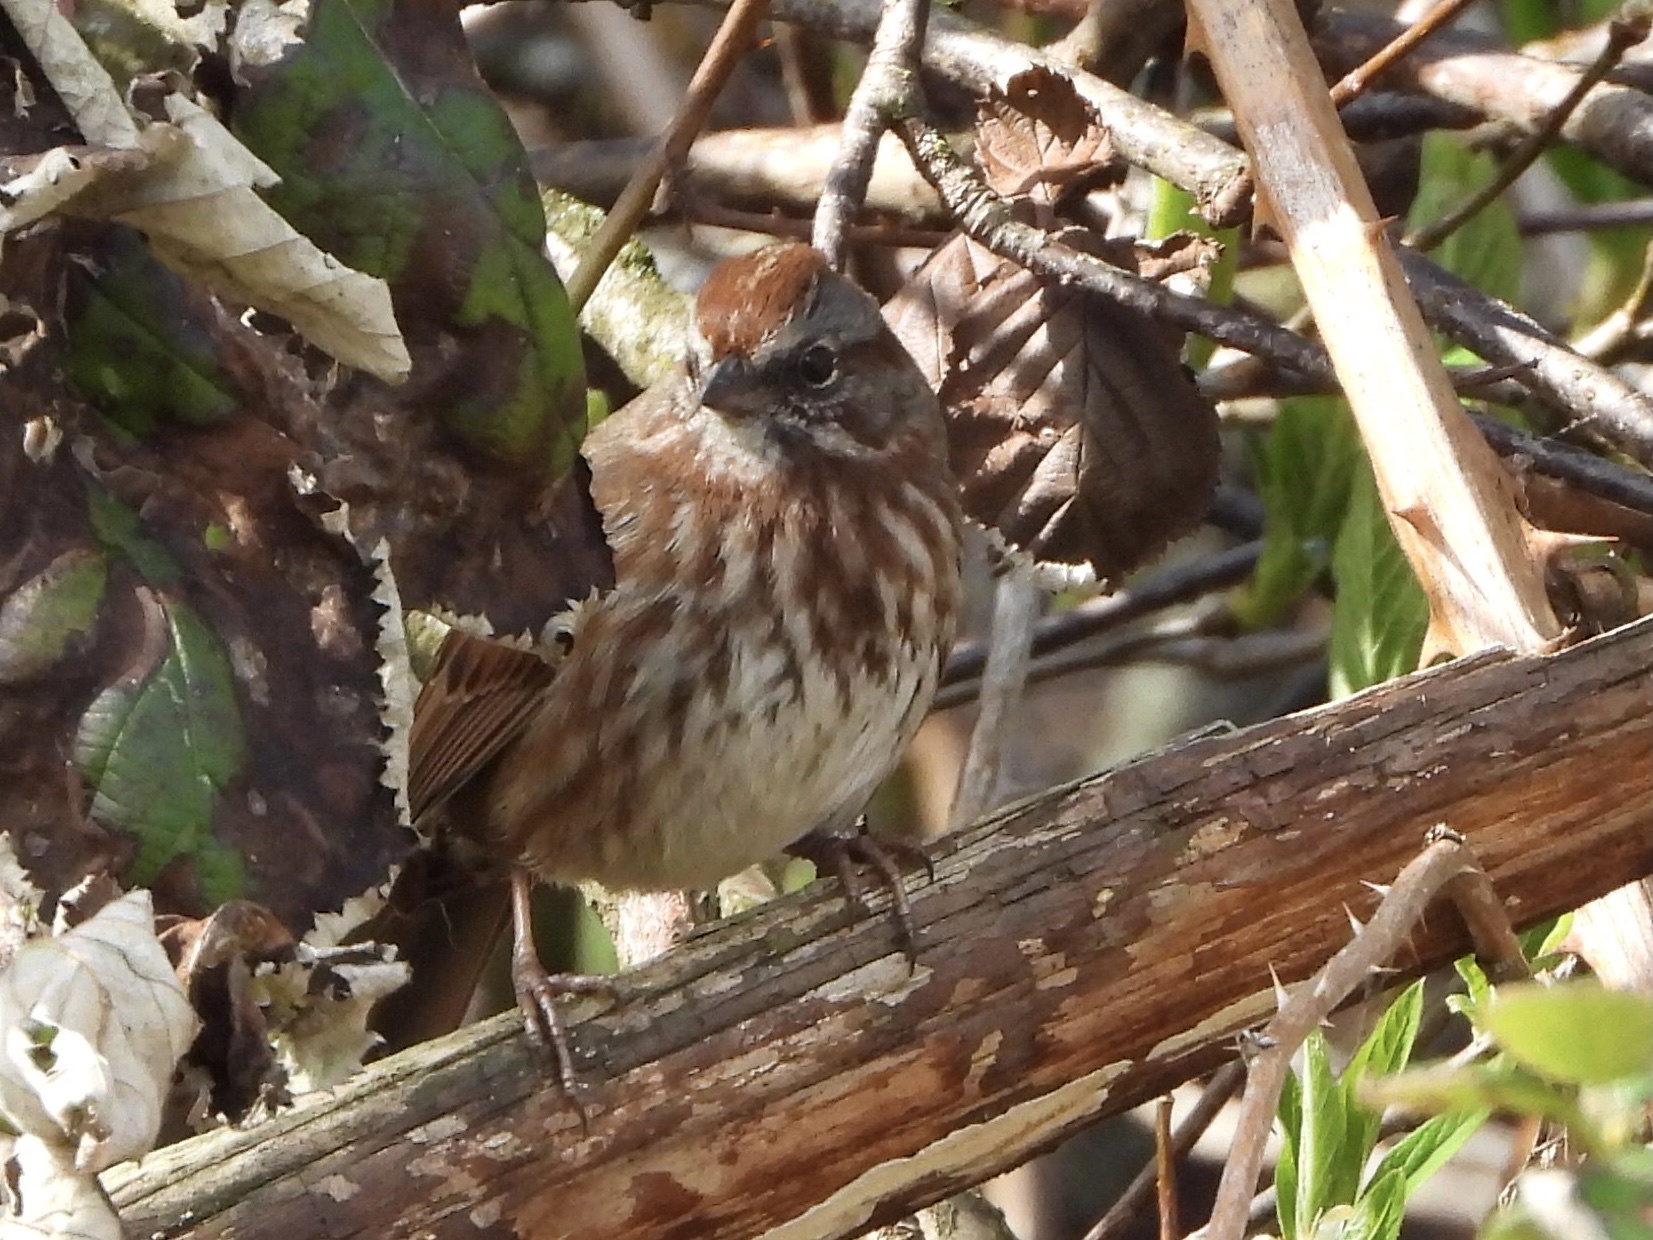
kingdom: Animalia
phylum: Chordata
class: Aves
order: Passeriformes
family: Passerellidae
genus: Melospiza
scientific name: Melospiza melodia
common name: Song sparrow
